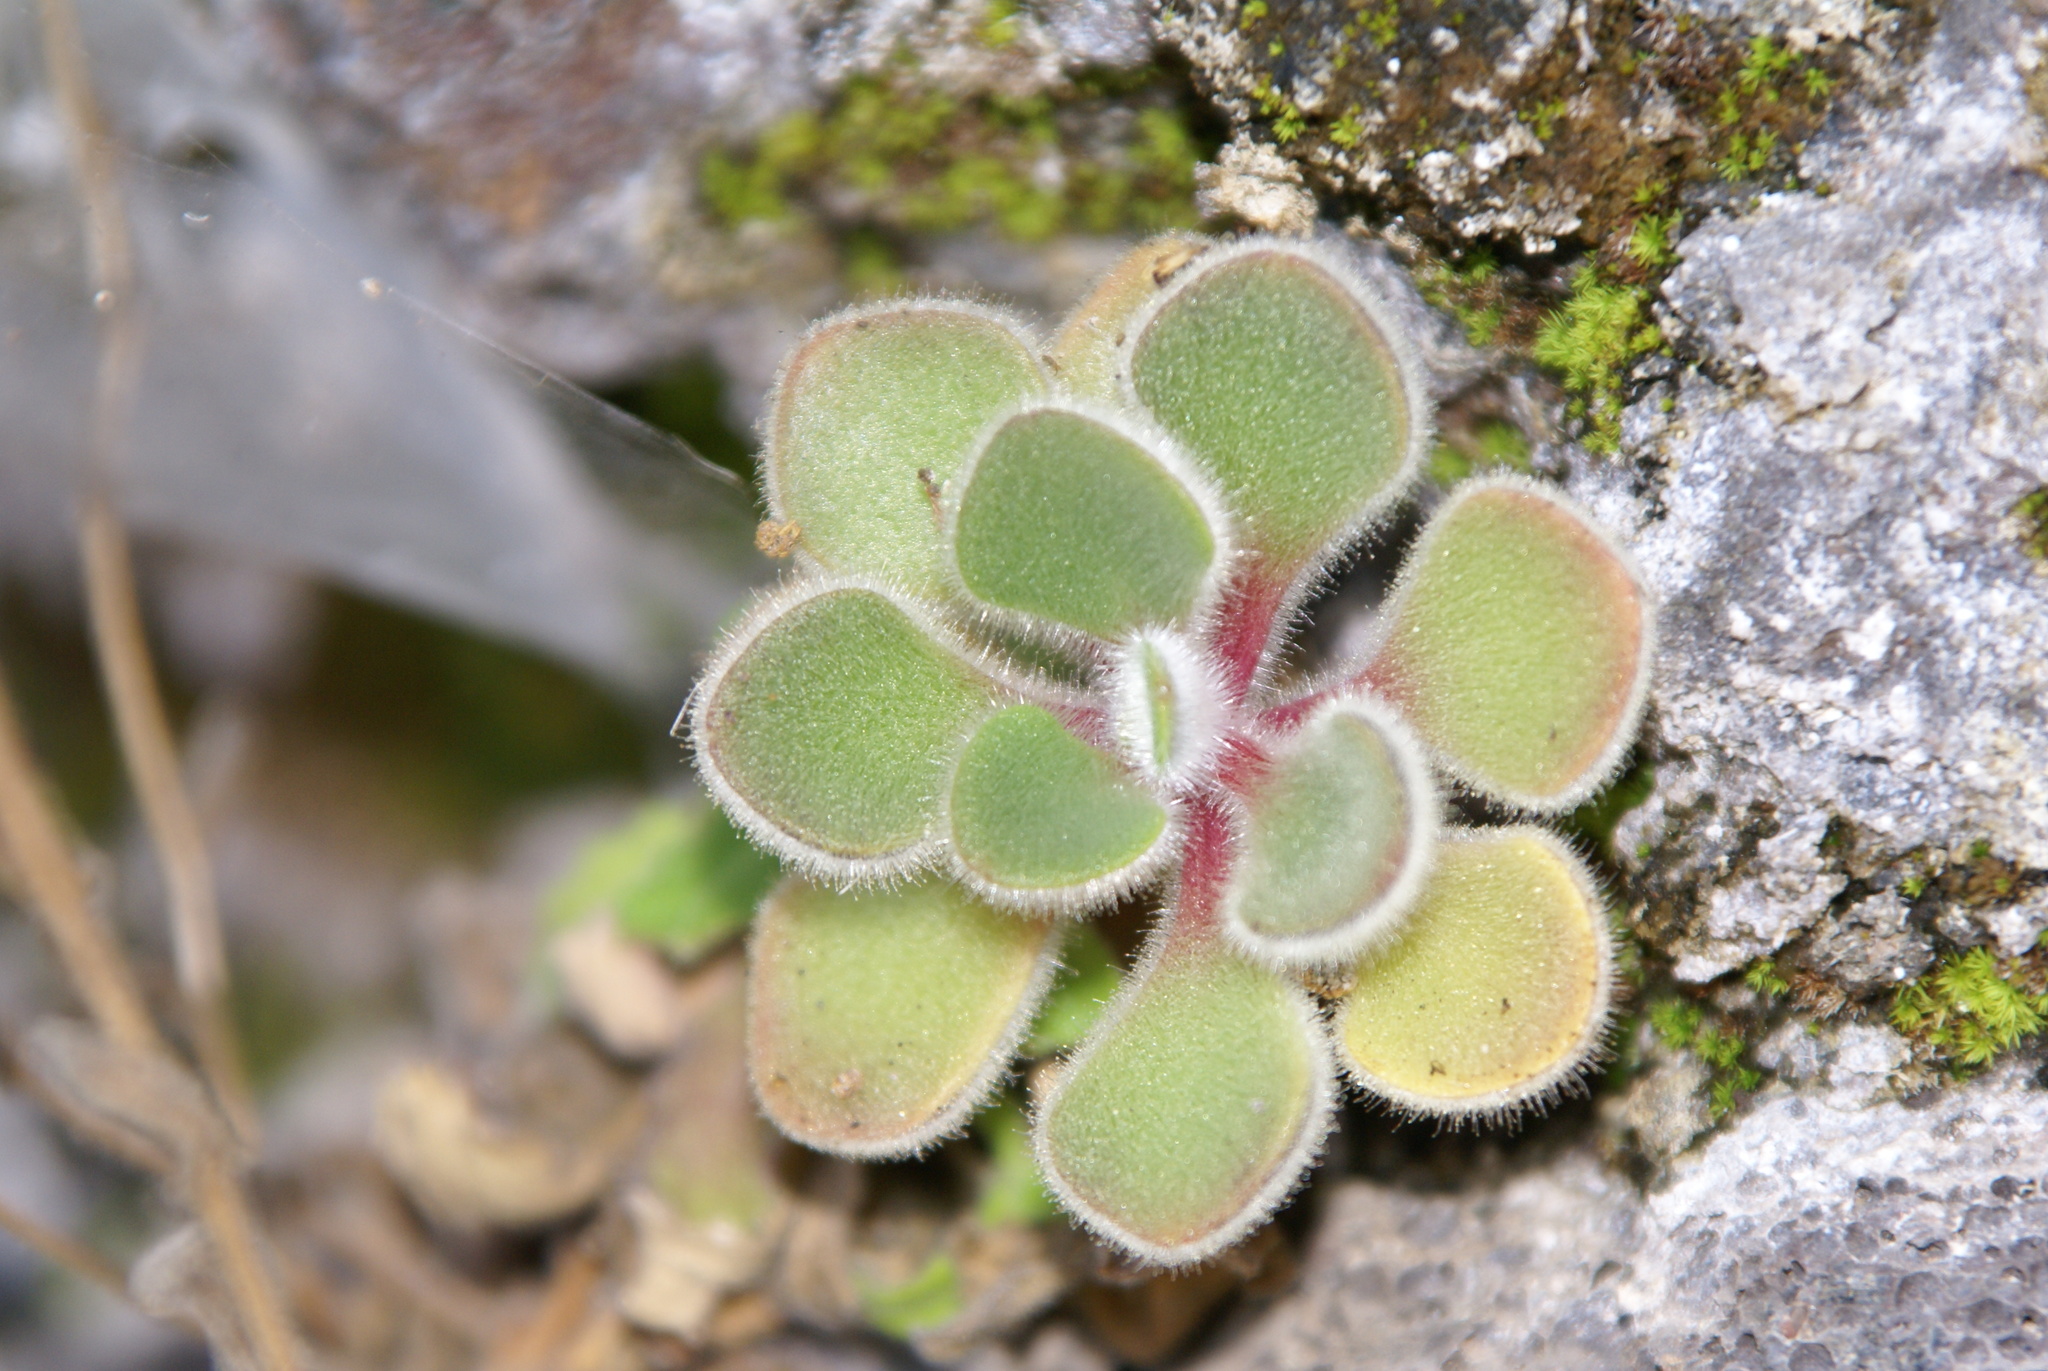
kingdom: Plantae
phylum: Tracheophyta
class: Magnoliopsida
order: Saxifragales
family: Crassulaceae
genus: Aichryson
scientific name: Aichryson laxum
